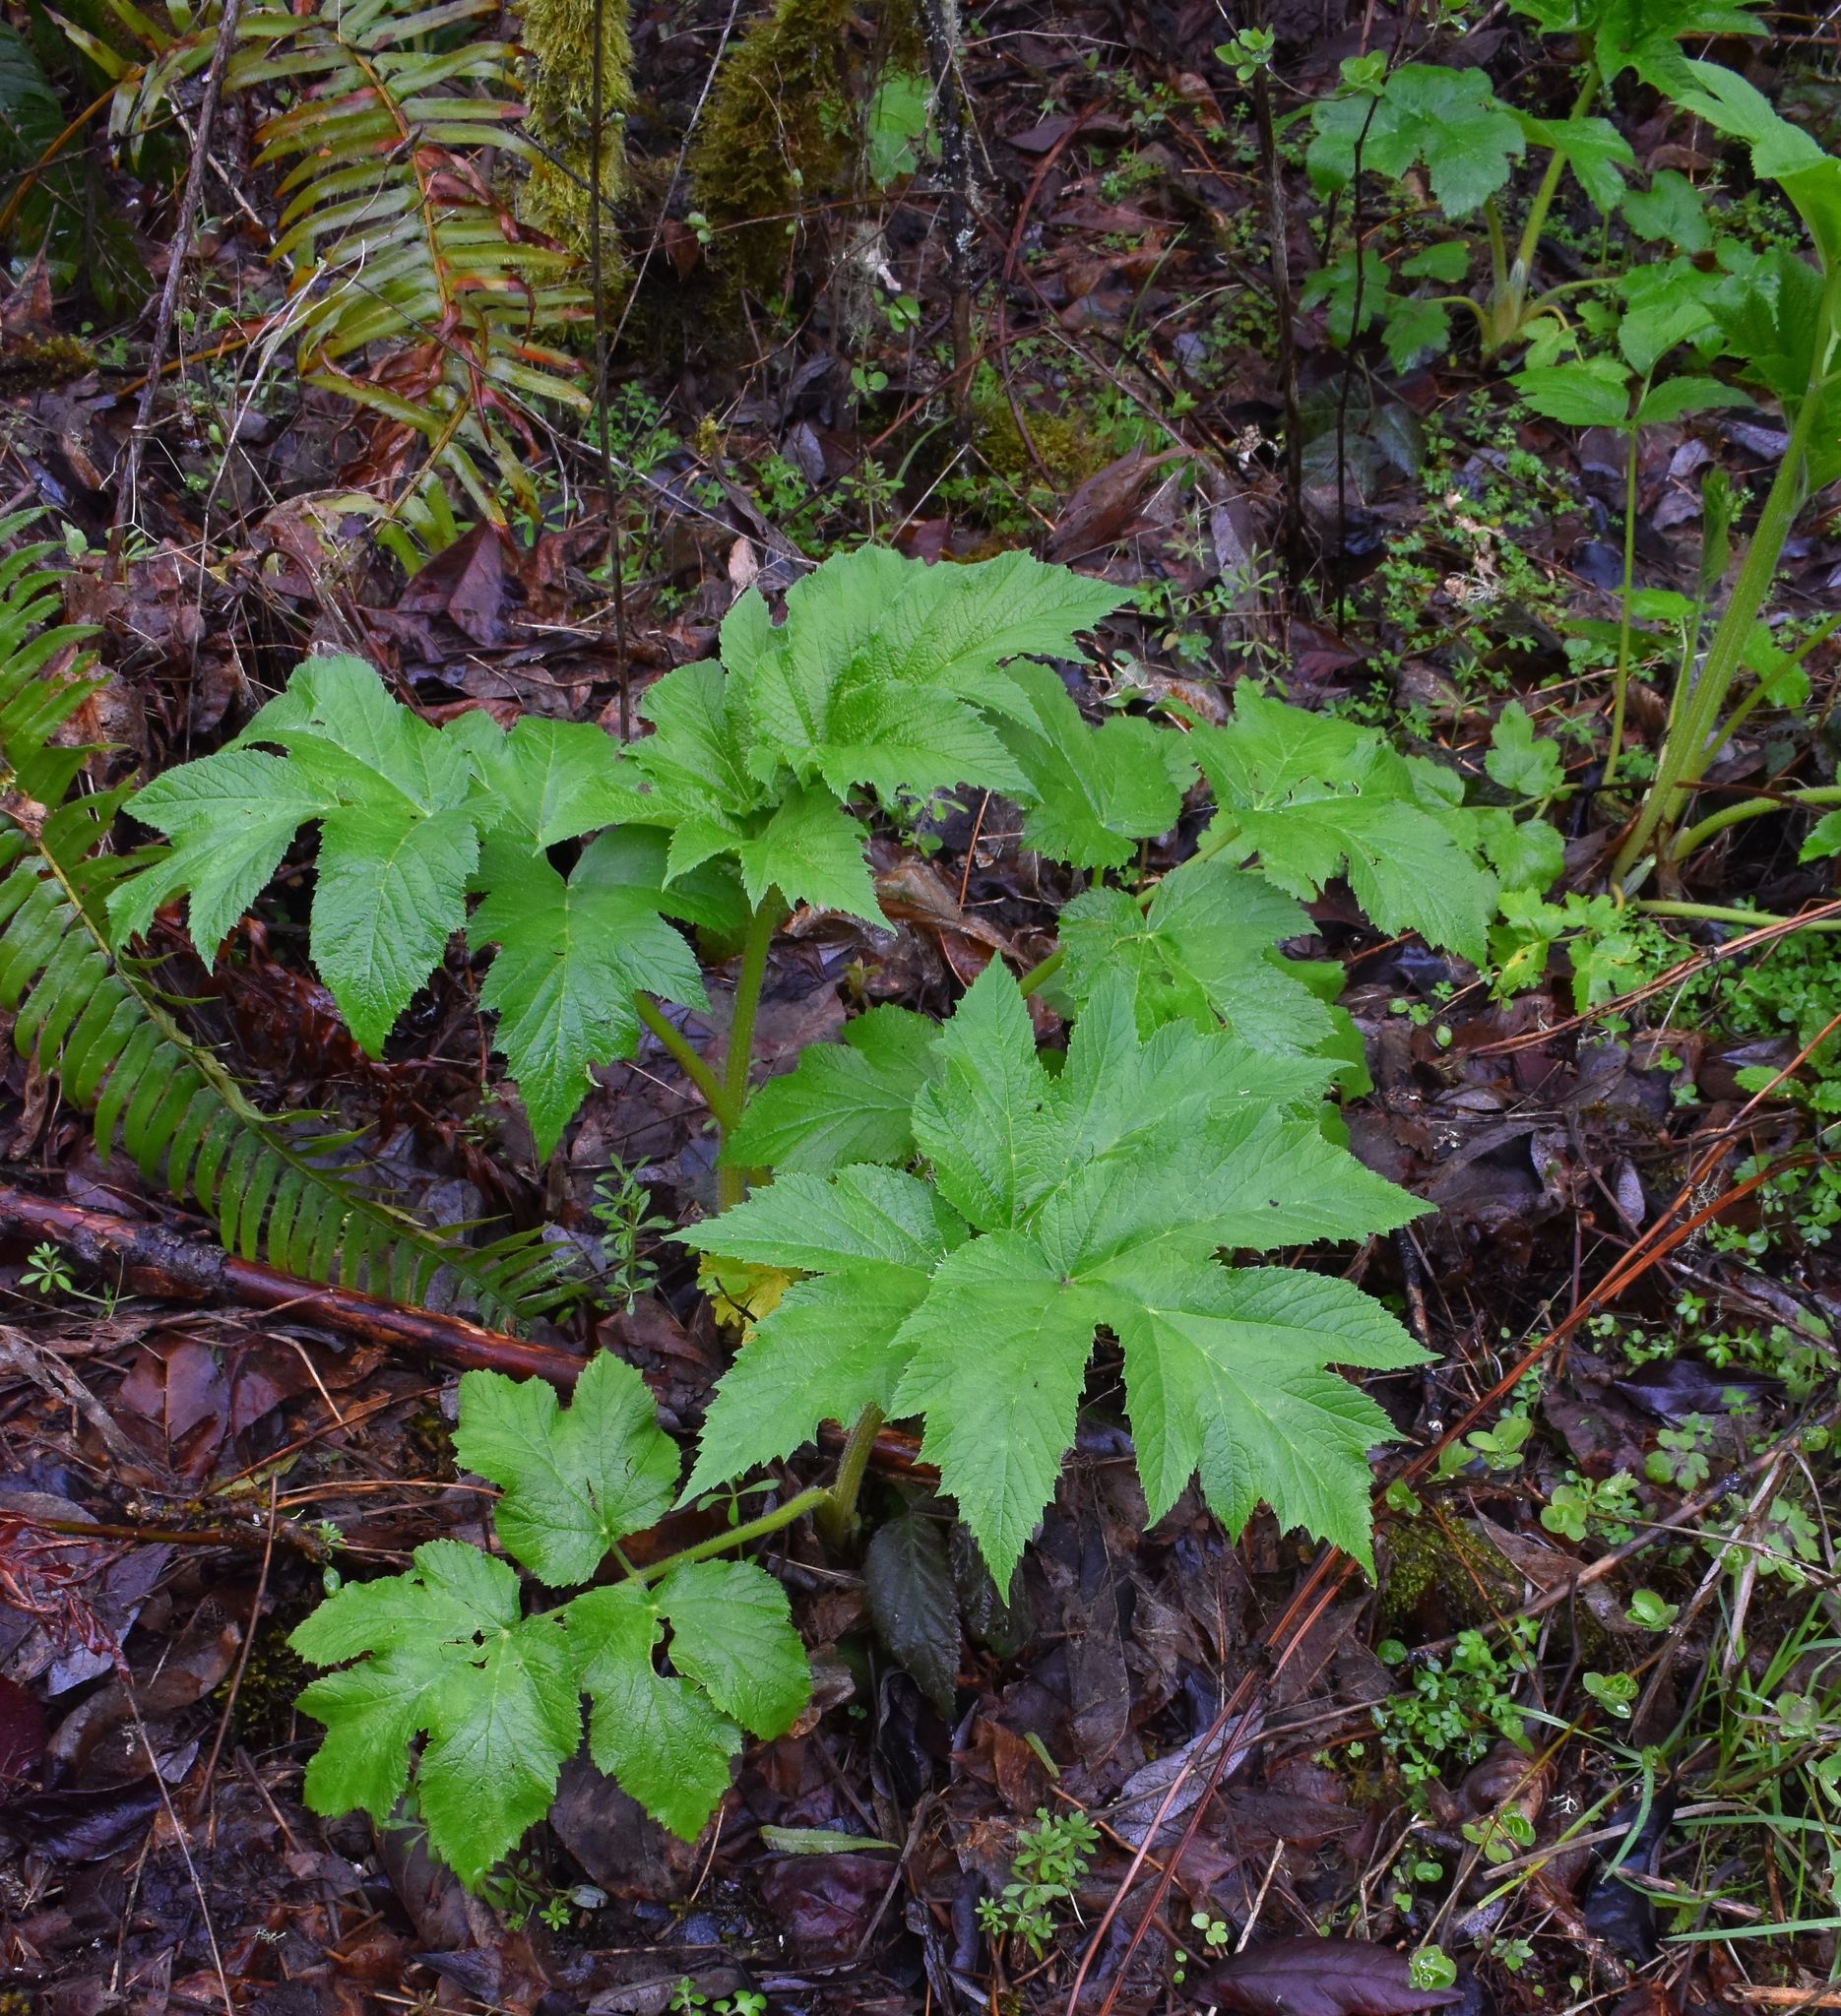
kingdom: Plantae
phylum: Tracheophyta
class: Magnoliopsida
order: Apiales
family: Apiaceae
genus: Heracleum
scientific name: Heracleum maximum
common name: American cow parsnip
